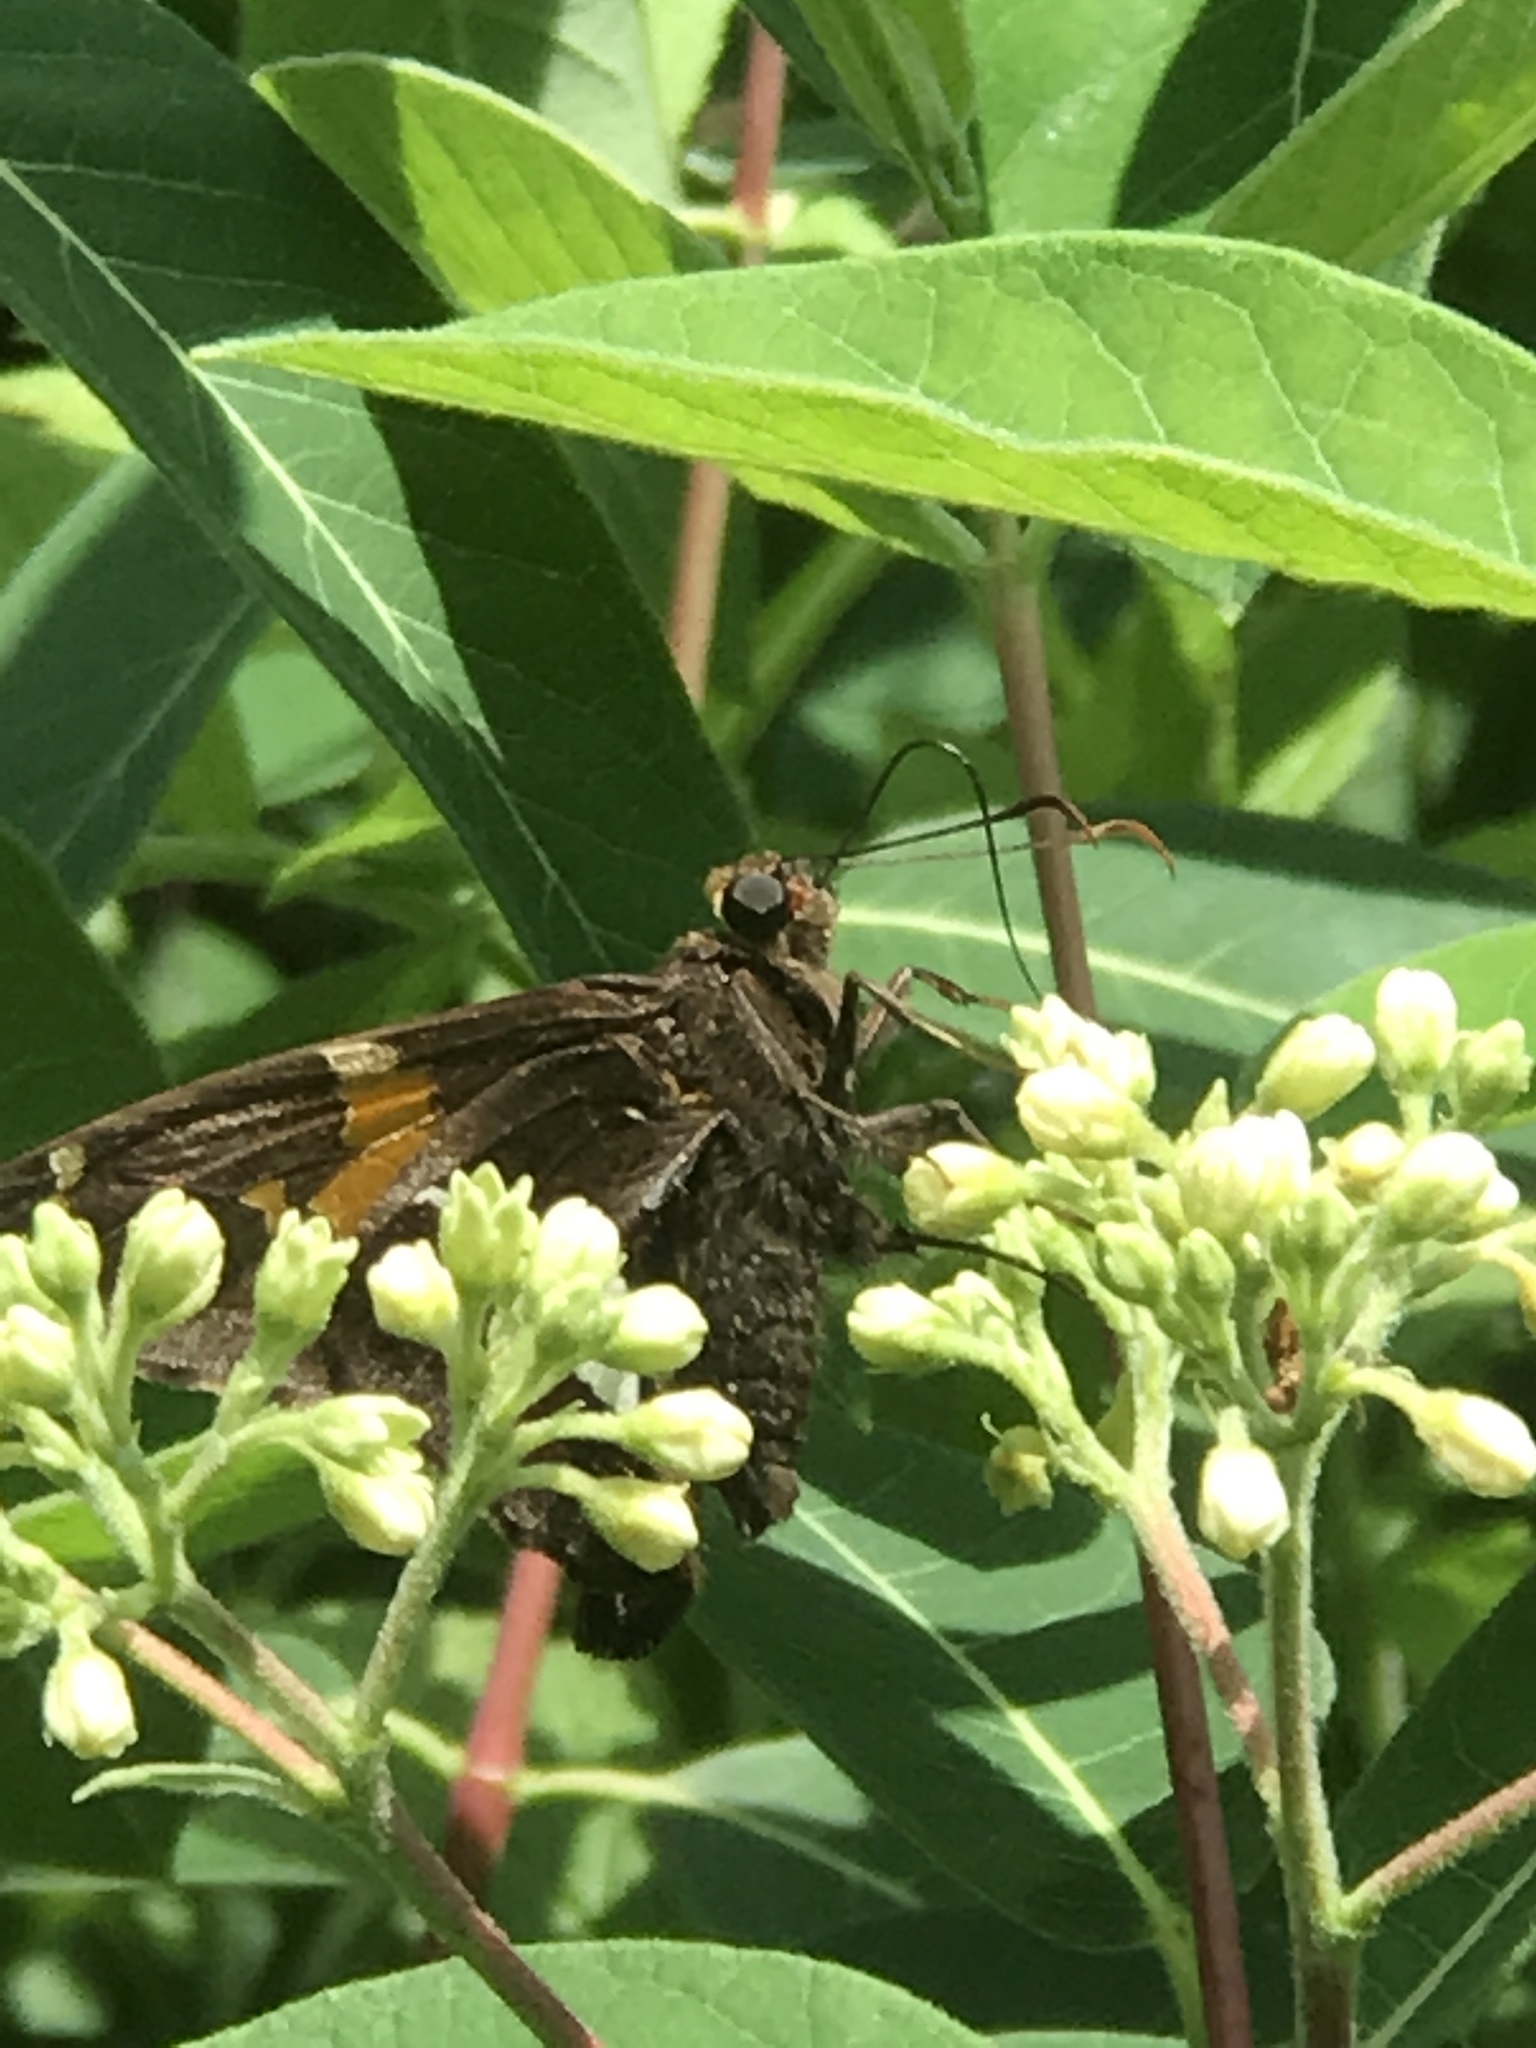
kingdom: Animalia
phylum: Arthropoda
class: Insecta
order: Lepidoptera
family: Hesperiidae
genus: Epargyreus
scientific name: Epargyreus clarus
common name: Silver-spotted skipper
